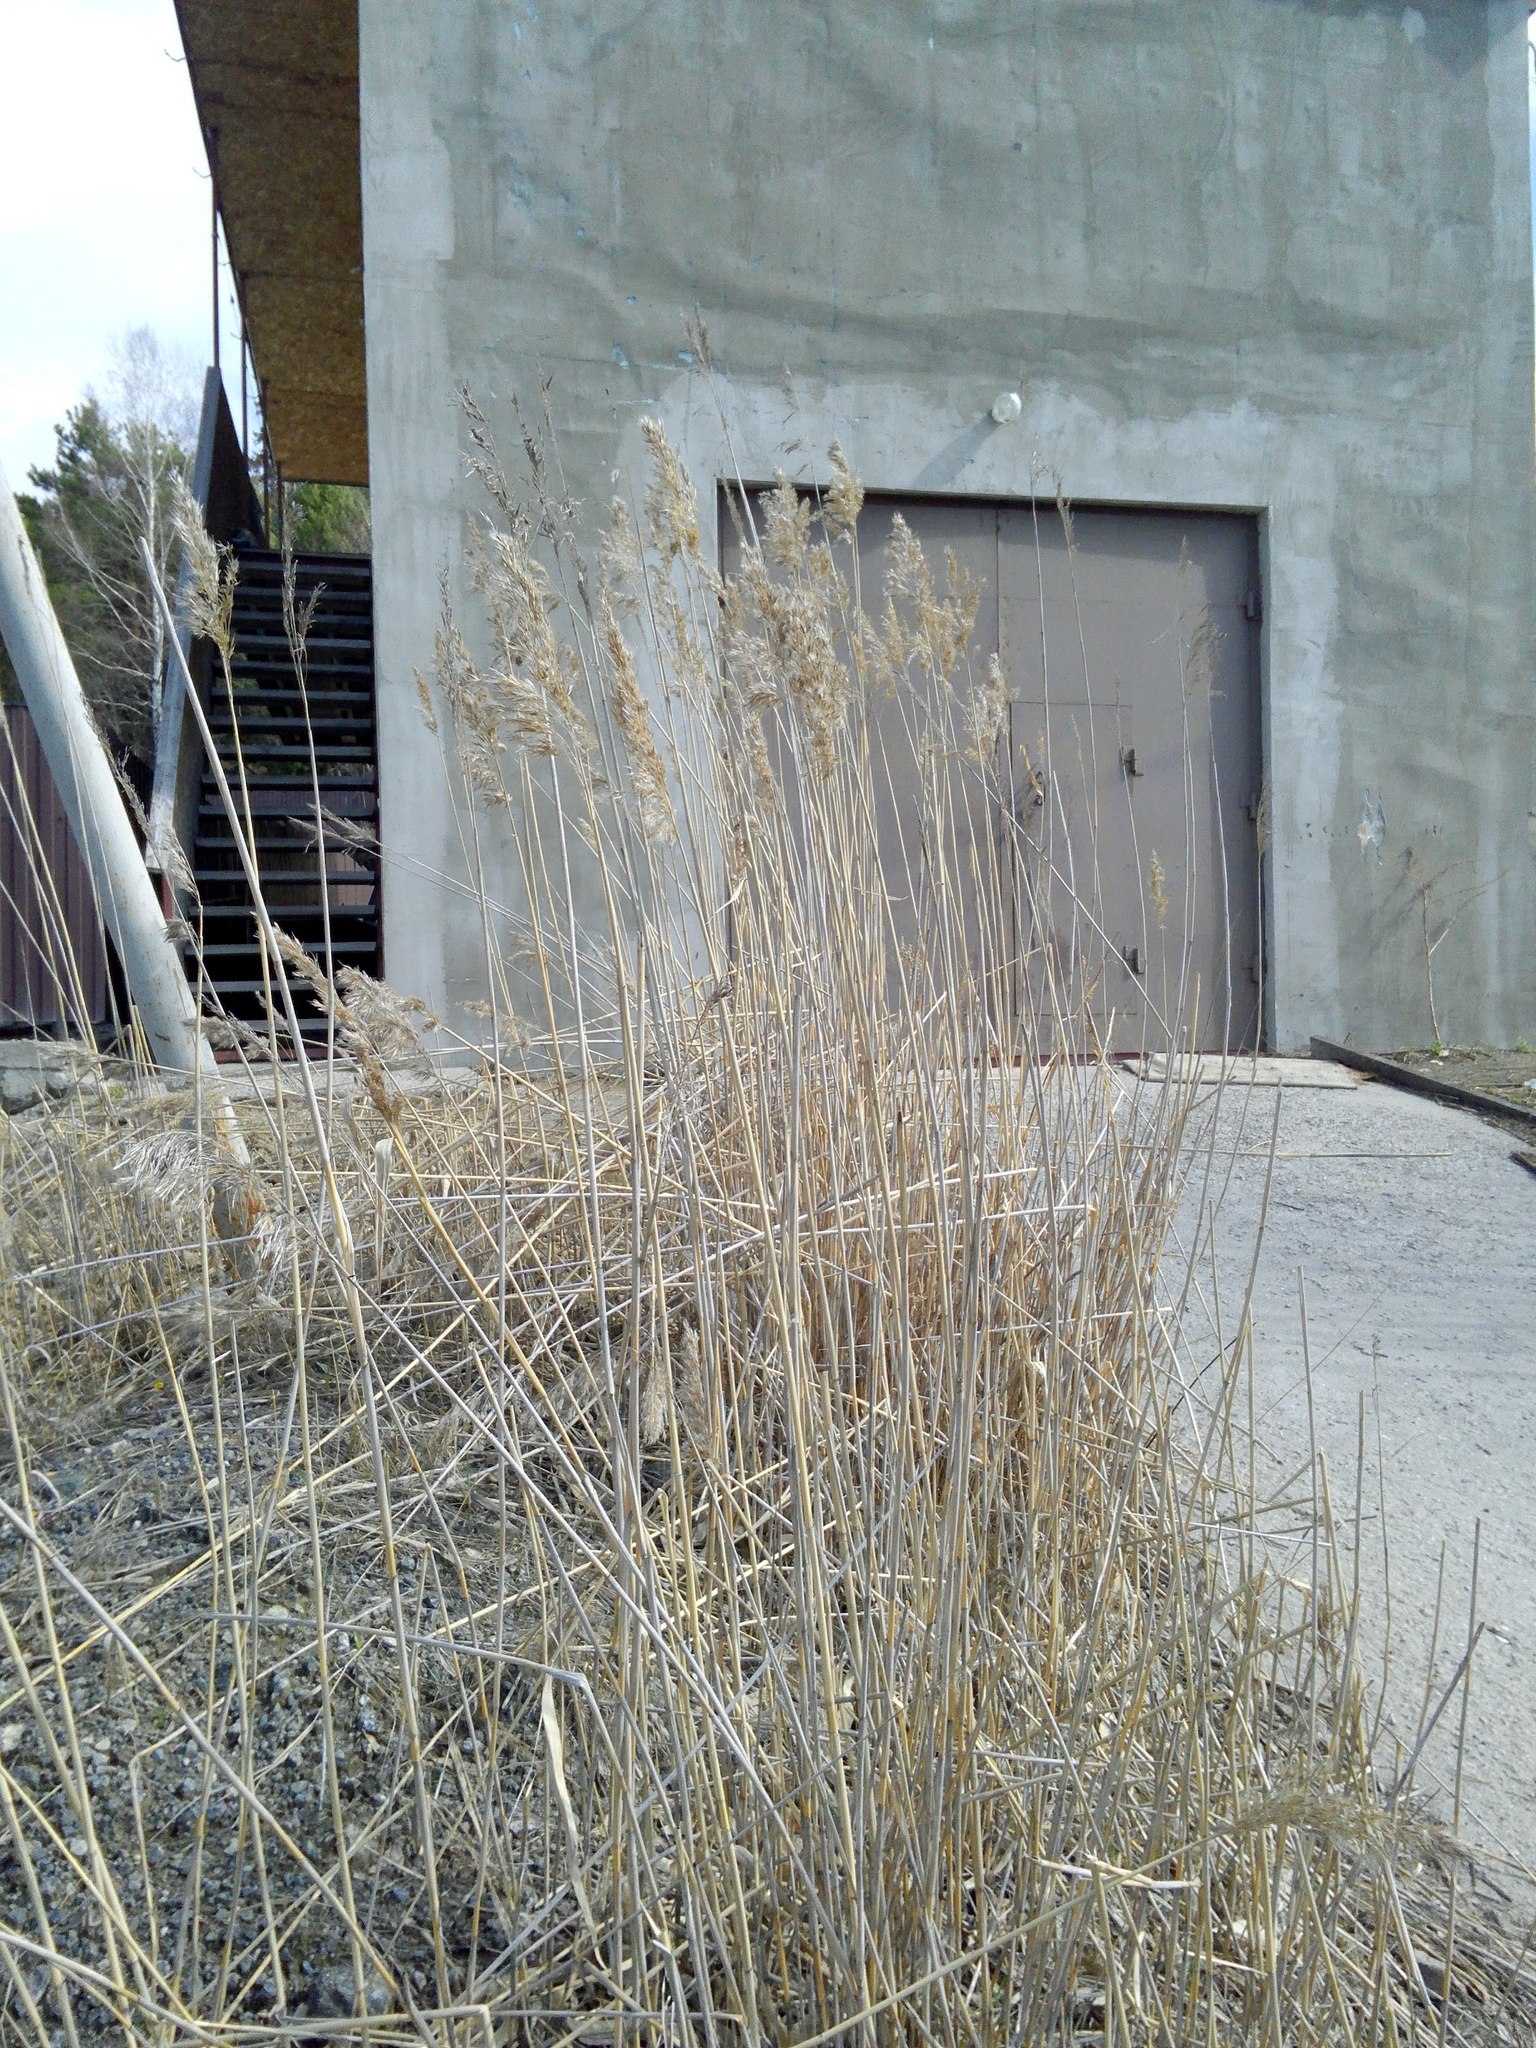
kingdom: Plantae
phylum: Tracheophyta
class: Liliopsida
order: Poales
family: Poaceae
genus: Phragmites
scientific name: Phragmites australis
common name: Common reed
